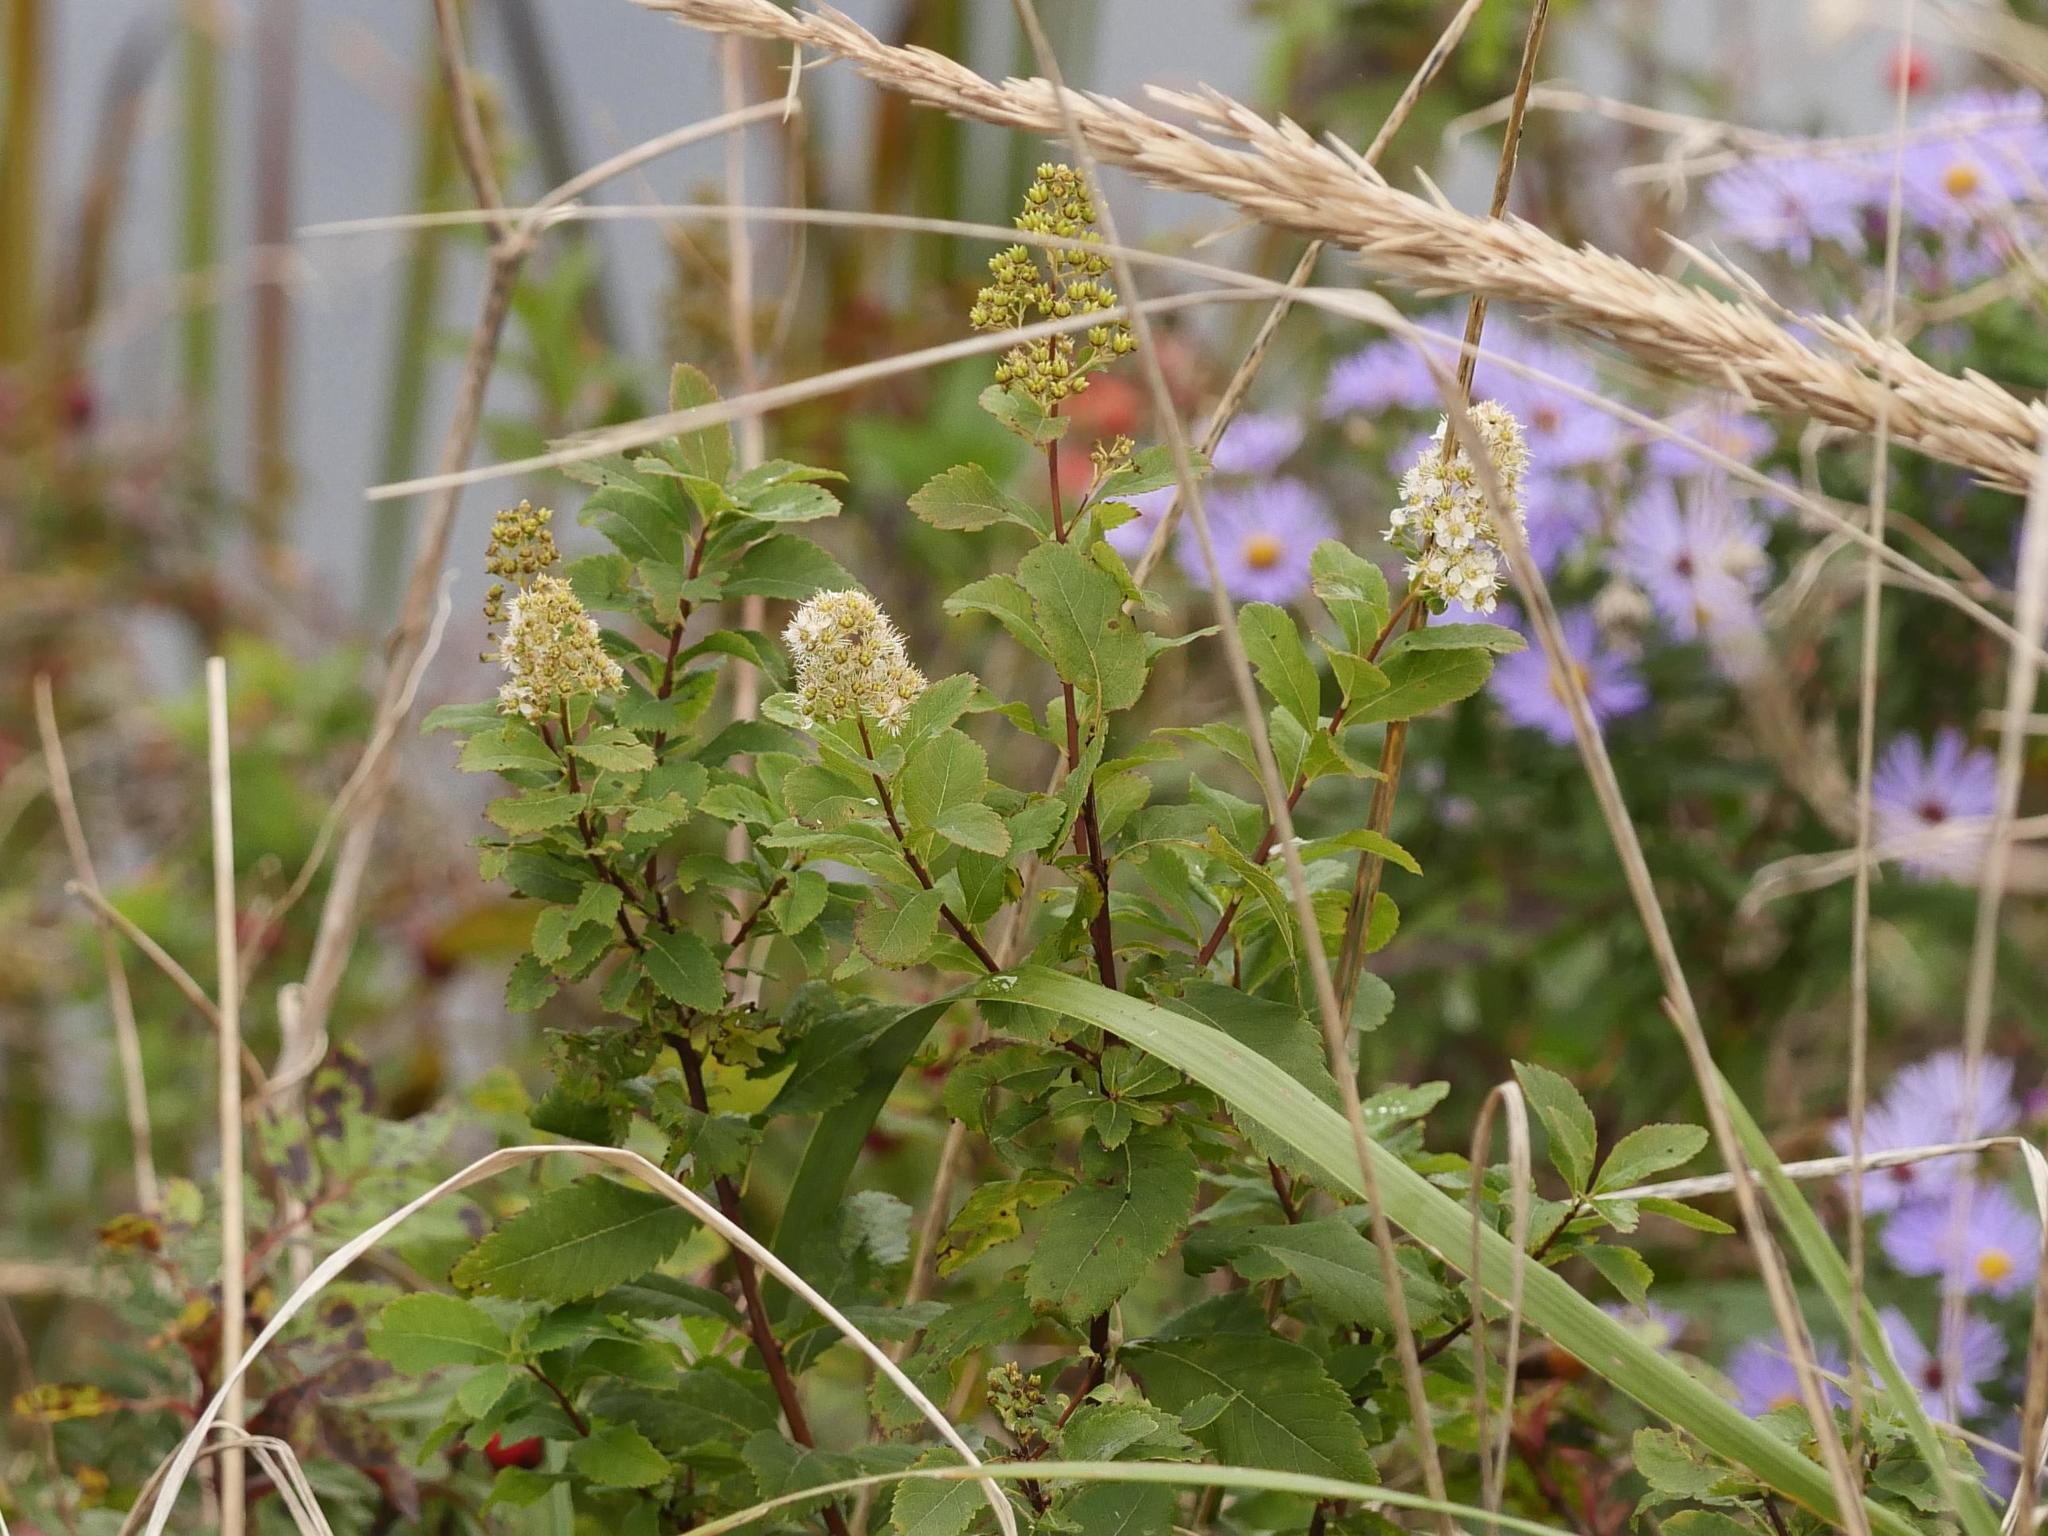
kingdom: Plantae
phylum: Tracheophyta
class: Magnoliopsida
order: Rosales
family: Rosaceae
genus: Spiraea
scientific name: Spiraea alba
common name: Pale bridewort
